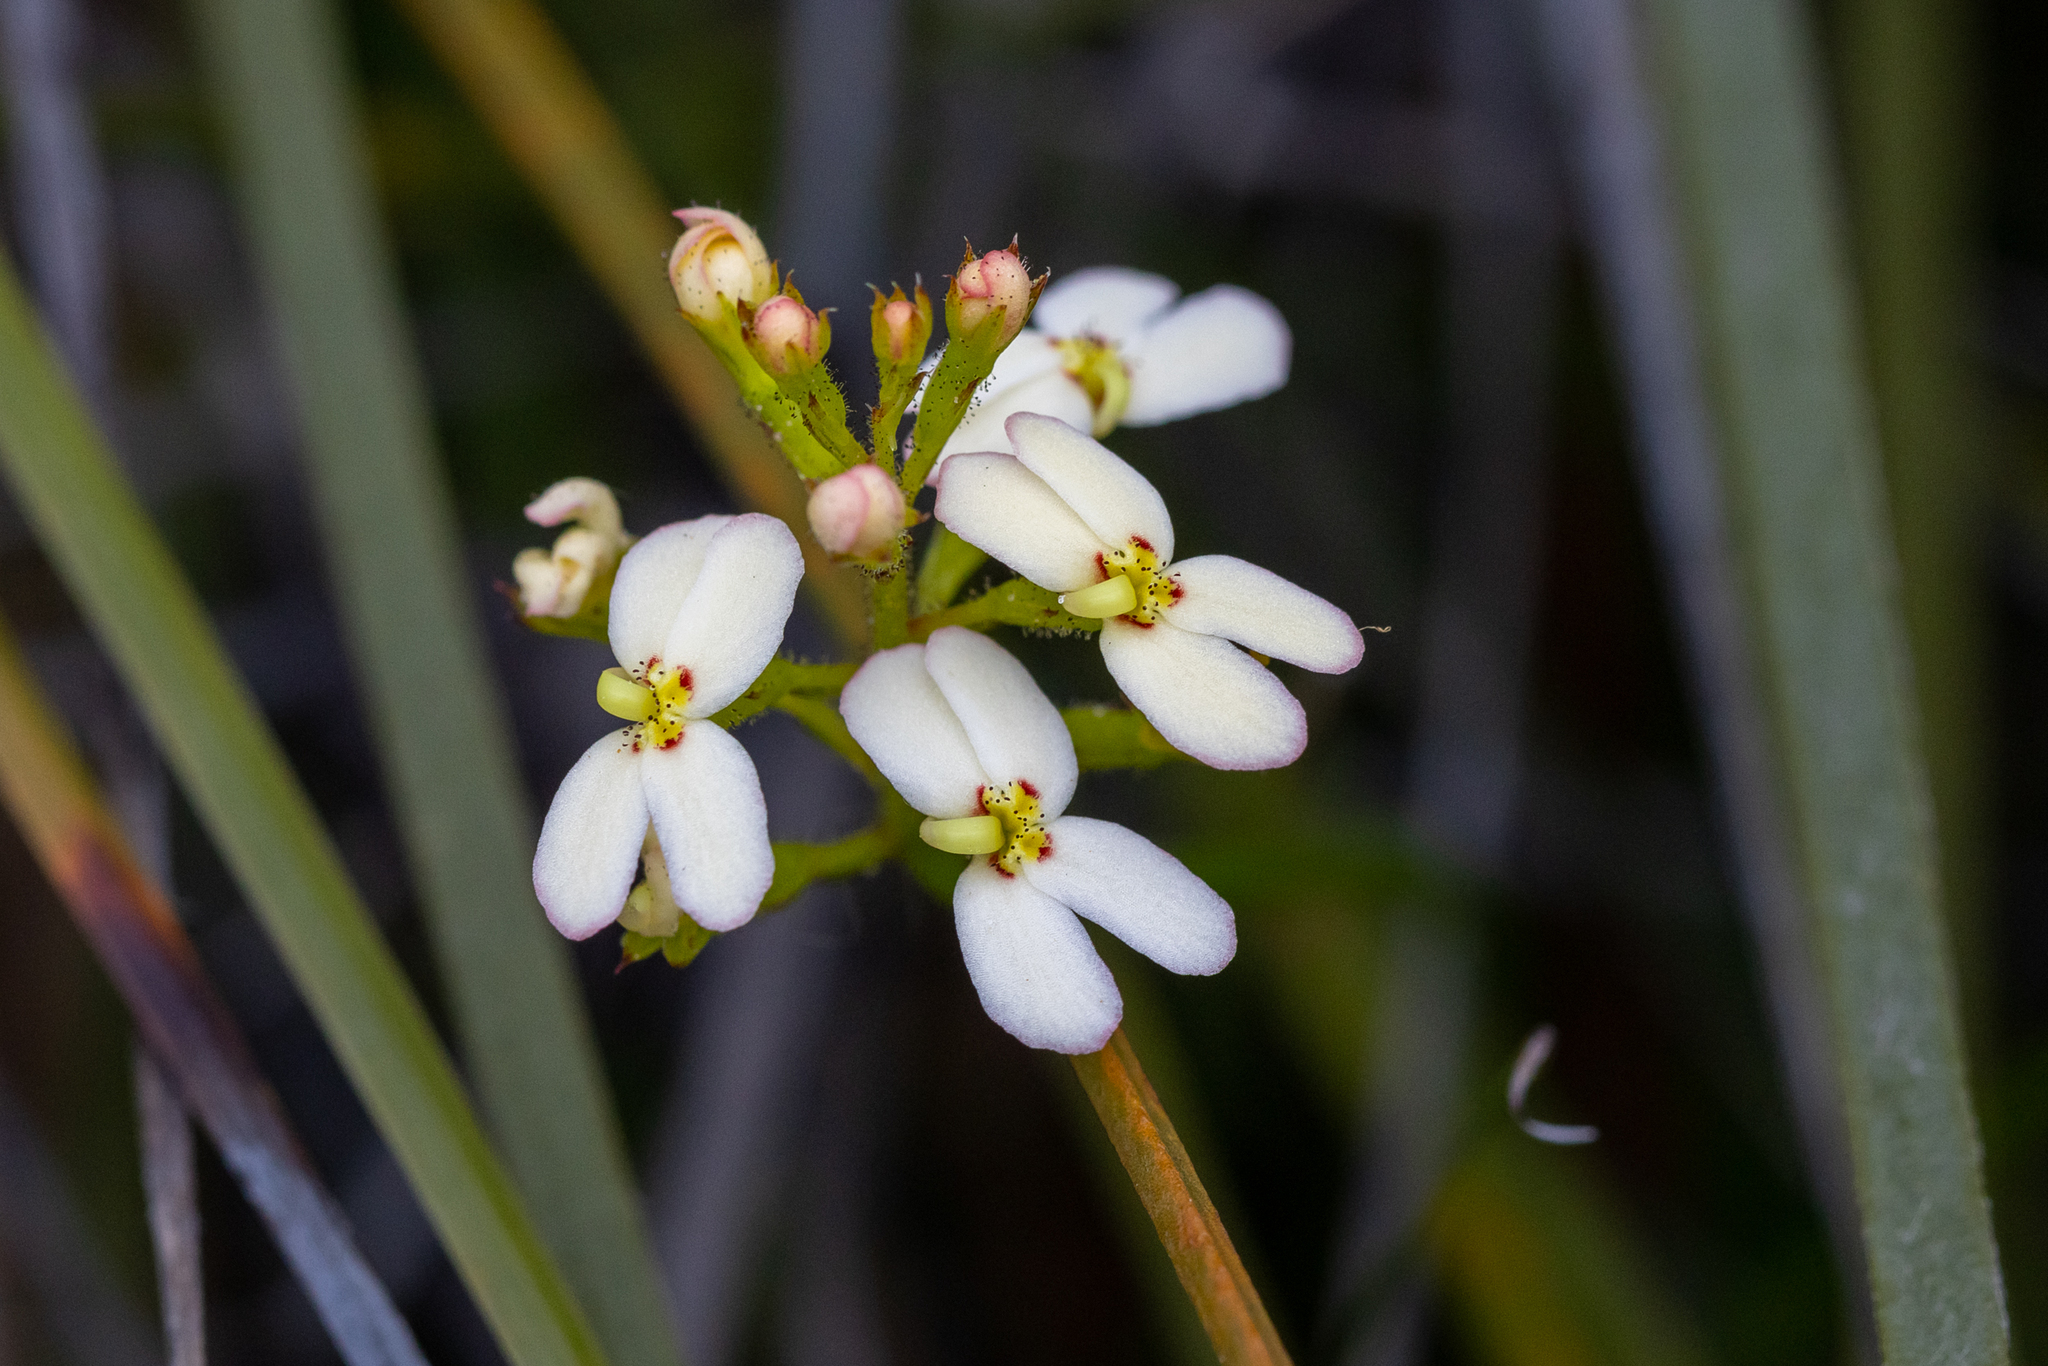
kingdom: Plantae
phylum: Tracheophyta
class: Magnoliopsida
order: Asterales
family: Stylidiaceae
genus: Stylidium
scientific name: Stylidium junceum
